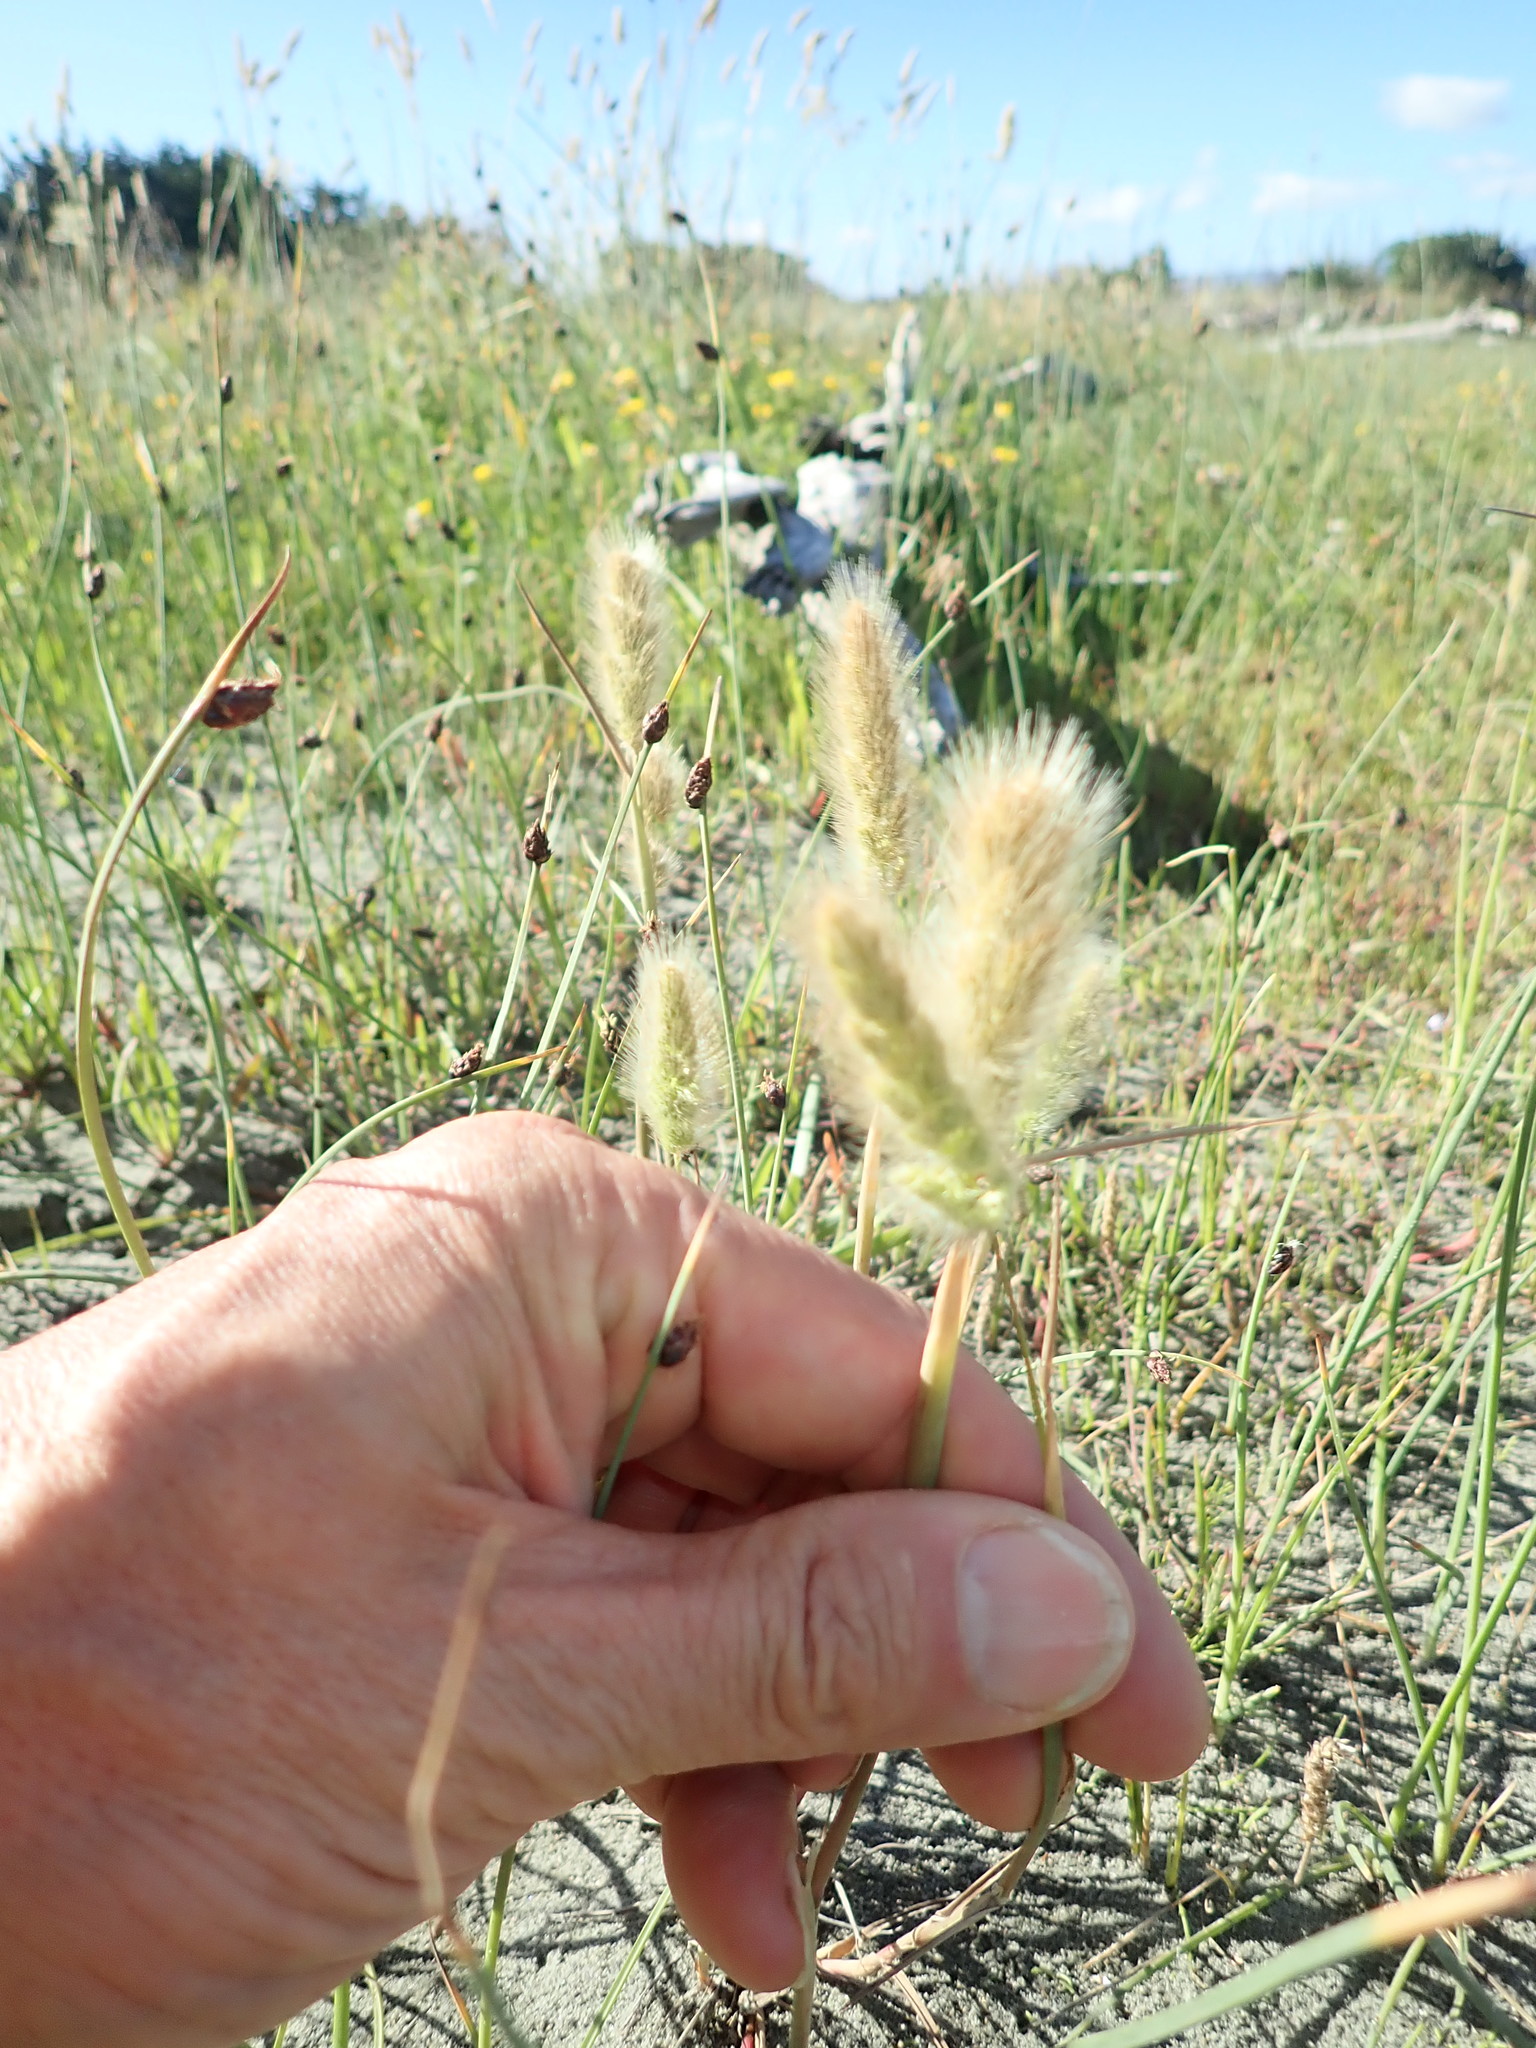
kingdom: Plantae
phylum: Tracheophyta
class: Liliopsida
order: Poales
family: Poaceae
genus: Polypogon
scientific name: Polypogon monspeliensis
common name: Annual rabbitsfoot grass
